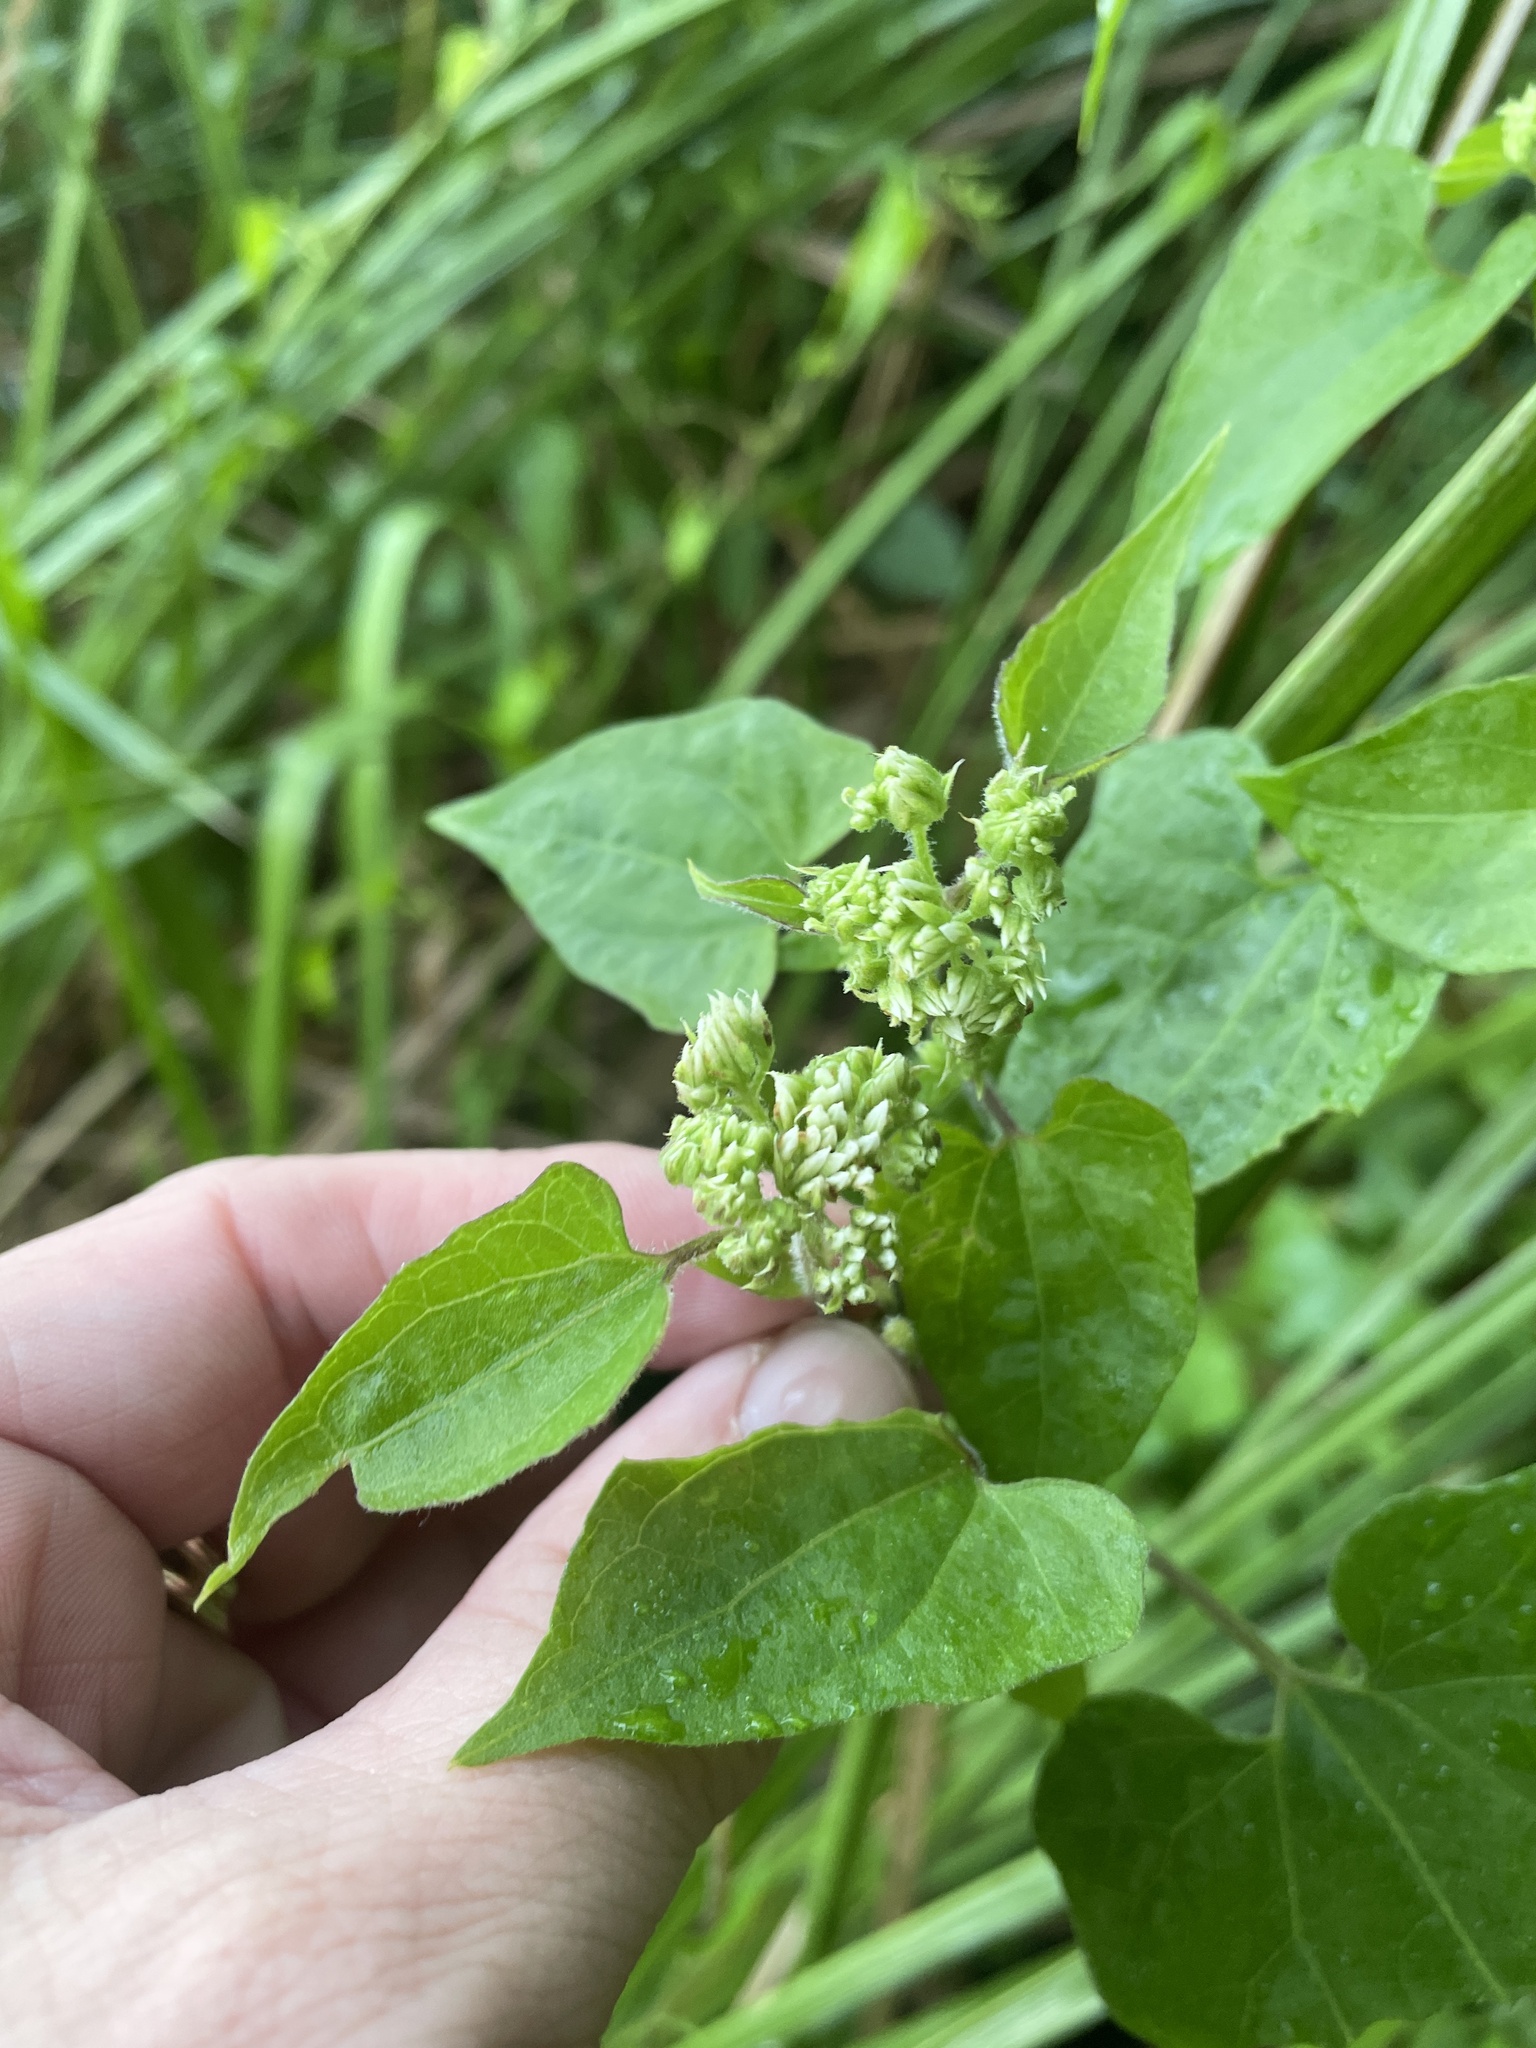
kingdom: Plantae
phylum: Tracheophyta
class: Magnoliopsida
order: Asterales
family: Asteraceae
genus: Mikania
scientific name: Mikania scandens
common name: Climbing hempvine
